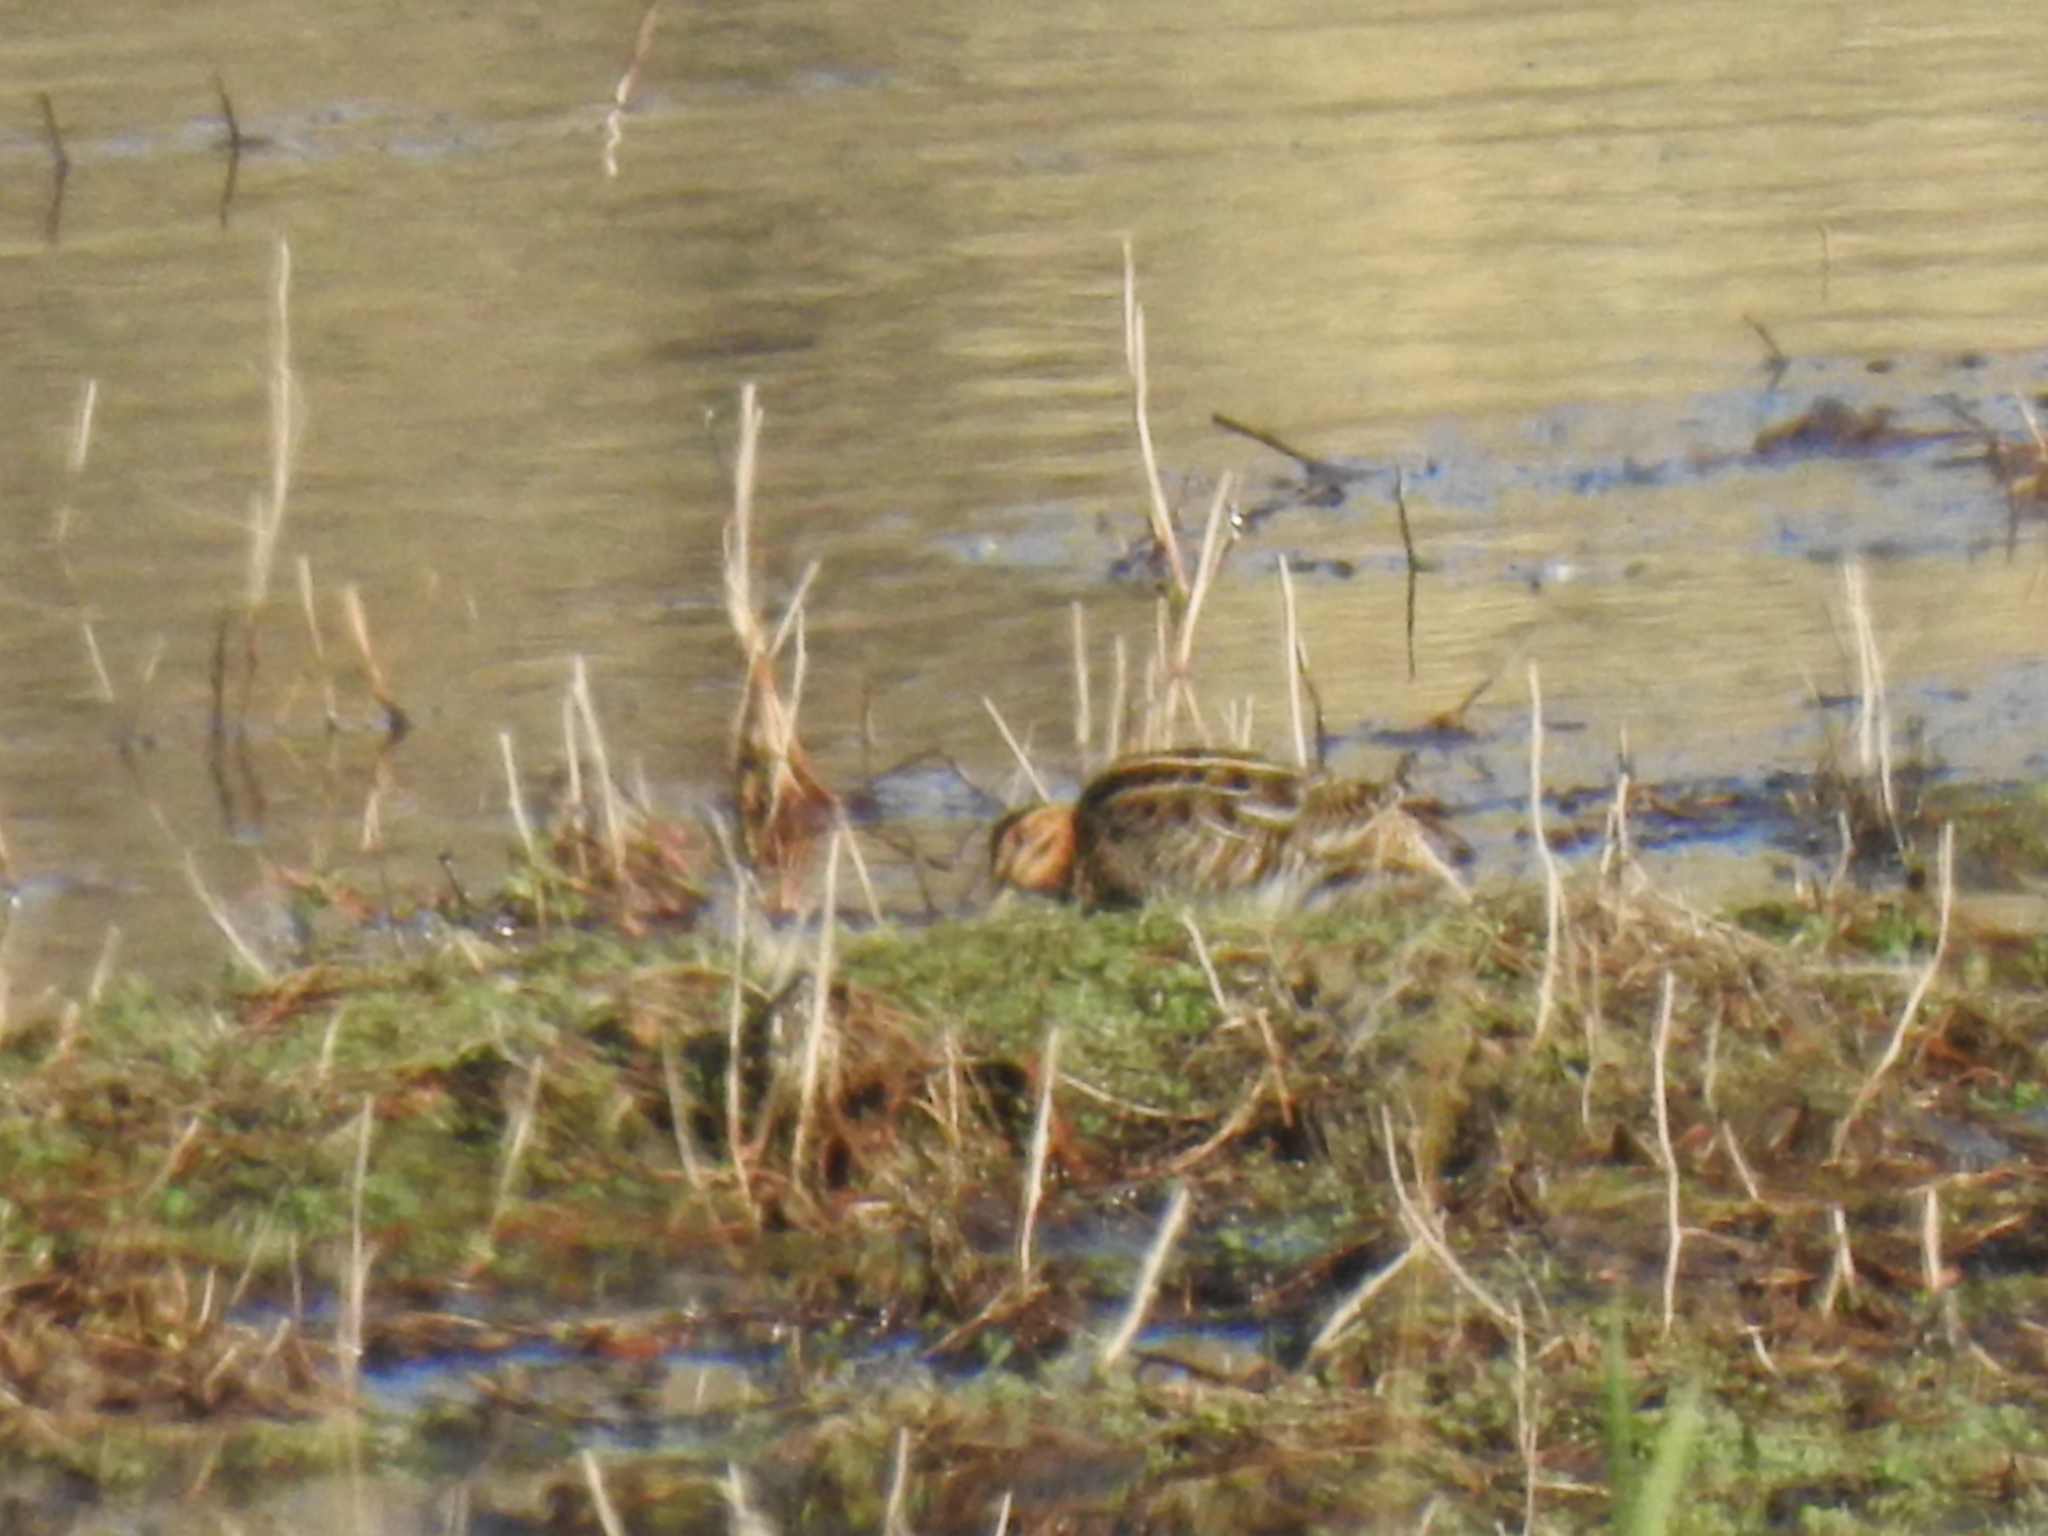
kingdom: Animalia
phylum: Chordata
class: Aves
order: Charadriiformes
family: Scolopacidae
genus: Gallinago
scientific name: Gallinago delicata
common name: Wilson's snipe
